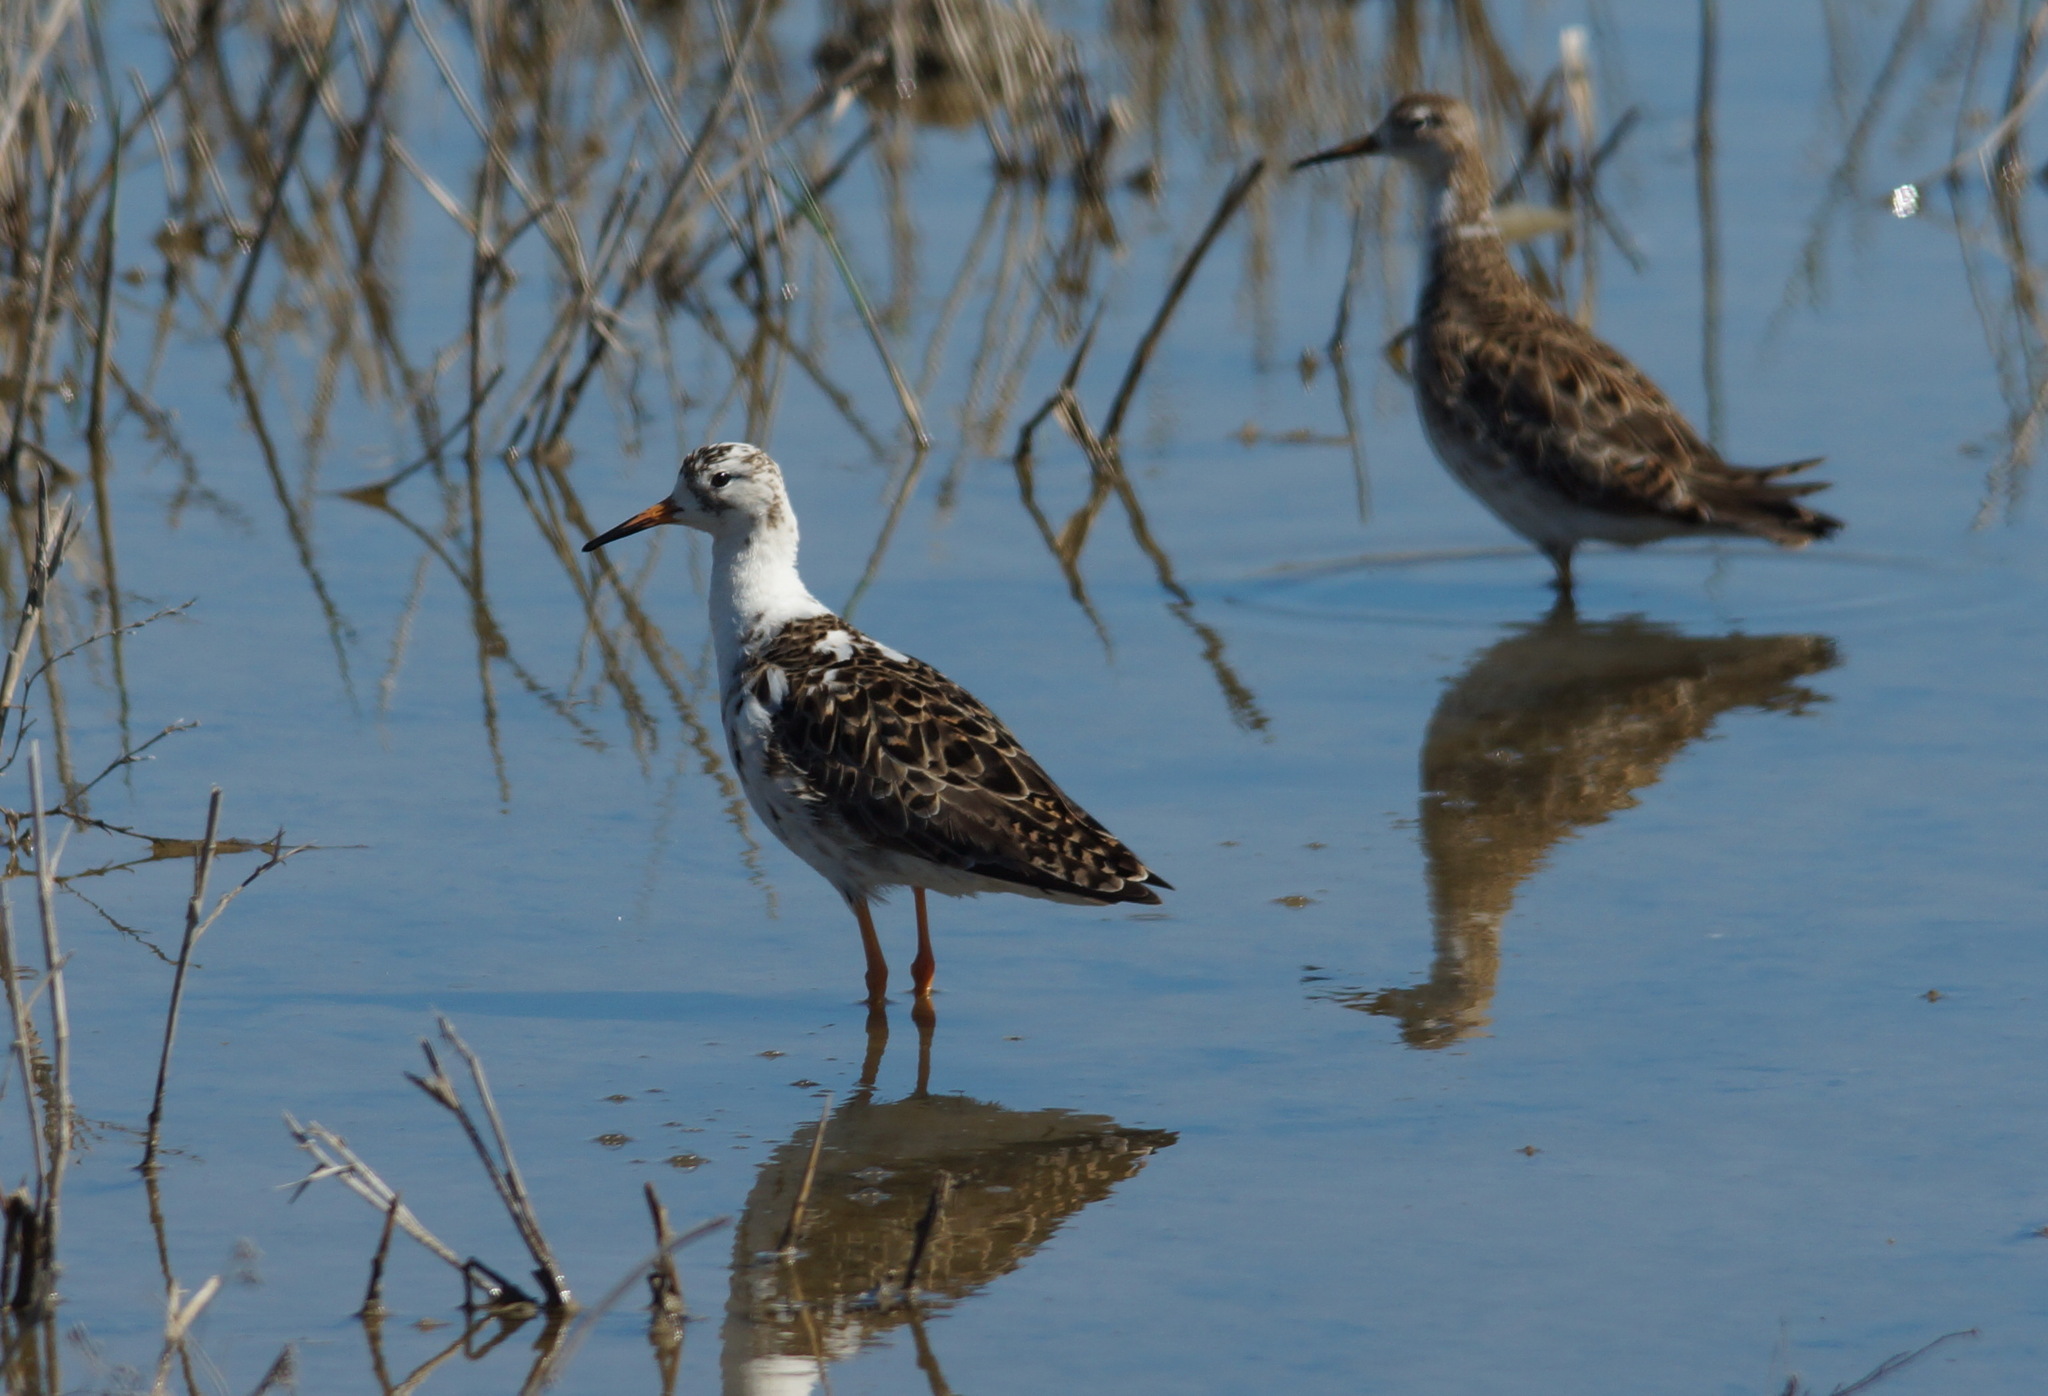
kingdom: Animalia
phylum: Chordata
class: Aves
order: Charadriiformes
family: Scolopacidae
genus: Calidris
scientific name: Calidris pugnax
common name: Ruff
